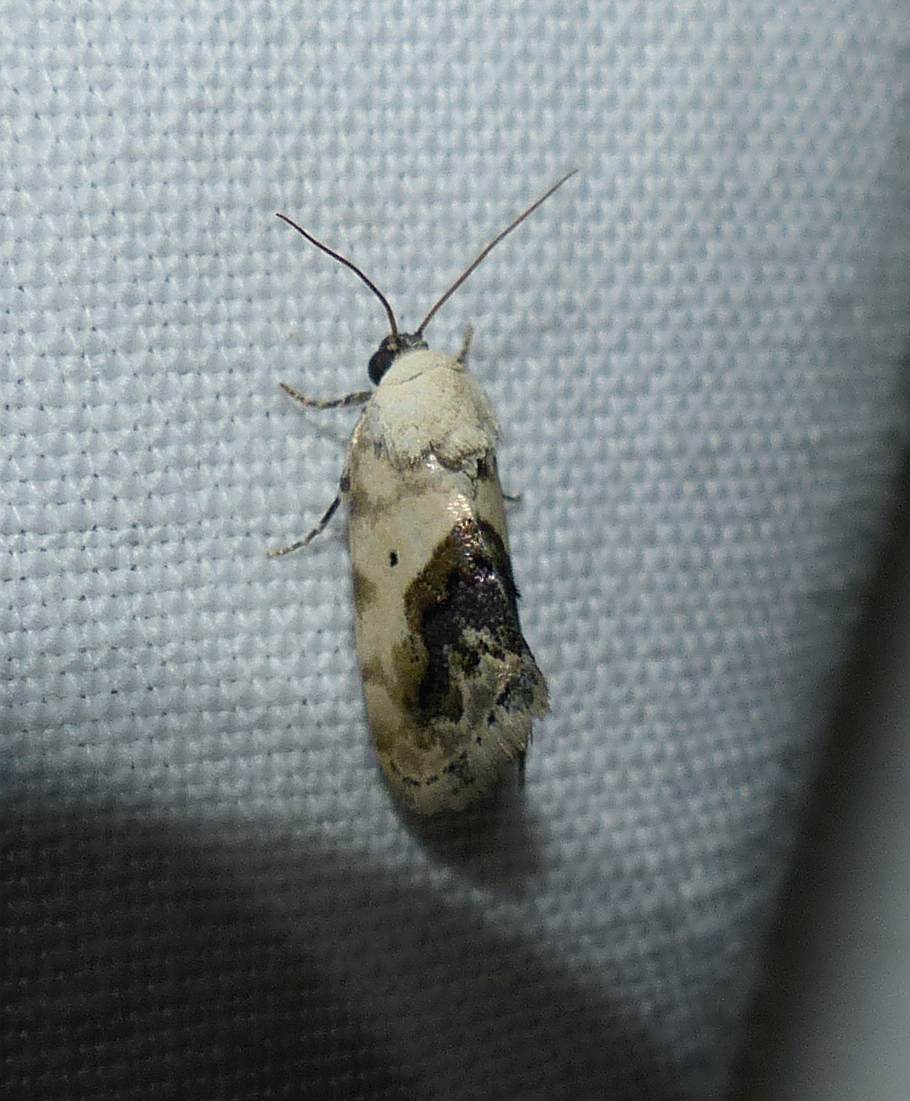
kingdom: Animalia
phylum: Arthropoda
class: Insecta
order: Lepidoptera
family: Noctuidae
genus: Acontia
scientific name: Acontia erastrioides
